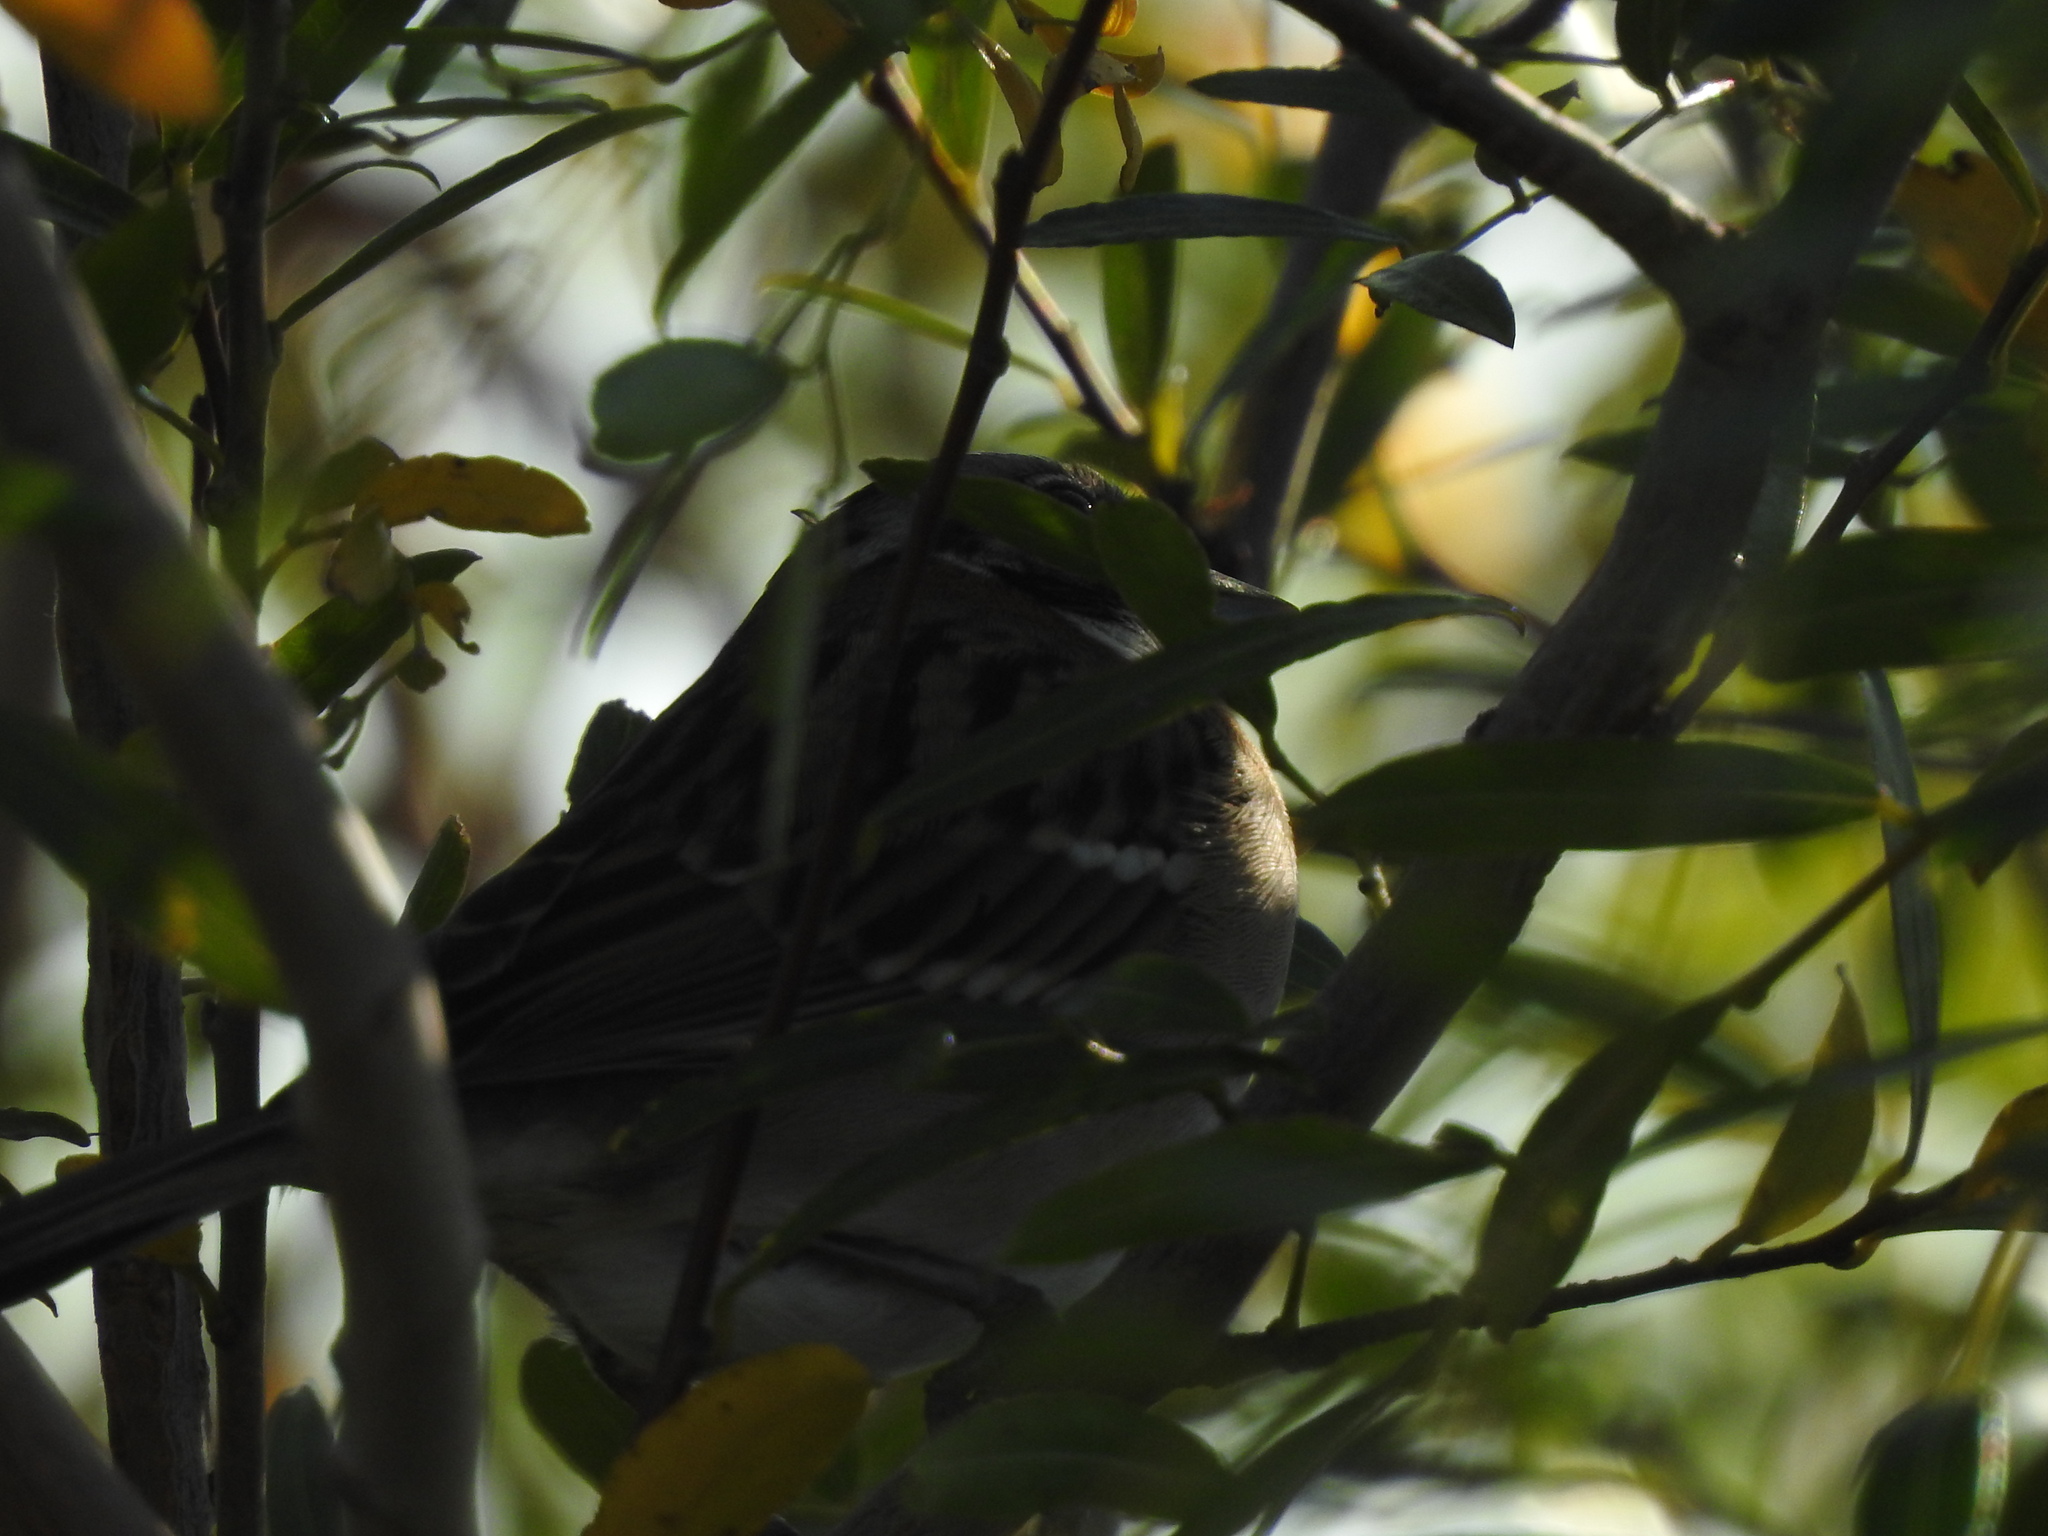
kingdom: Animalia
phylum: Chordata
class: Aves
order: Passeriformes
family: Passerellidae
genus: Zonotrichia
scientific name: Zonotrichia capensis
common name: Rufous-collared sparrow
